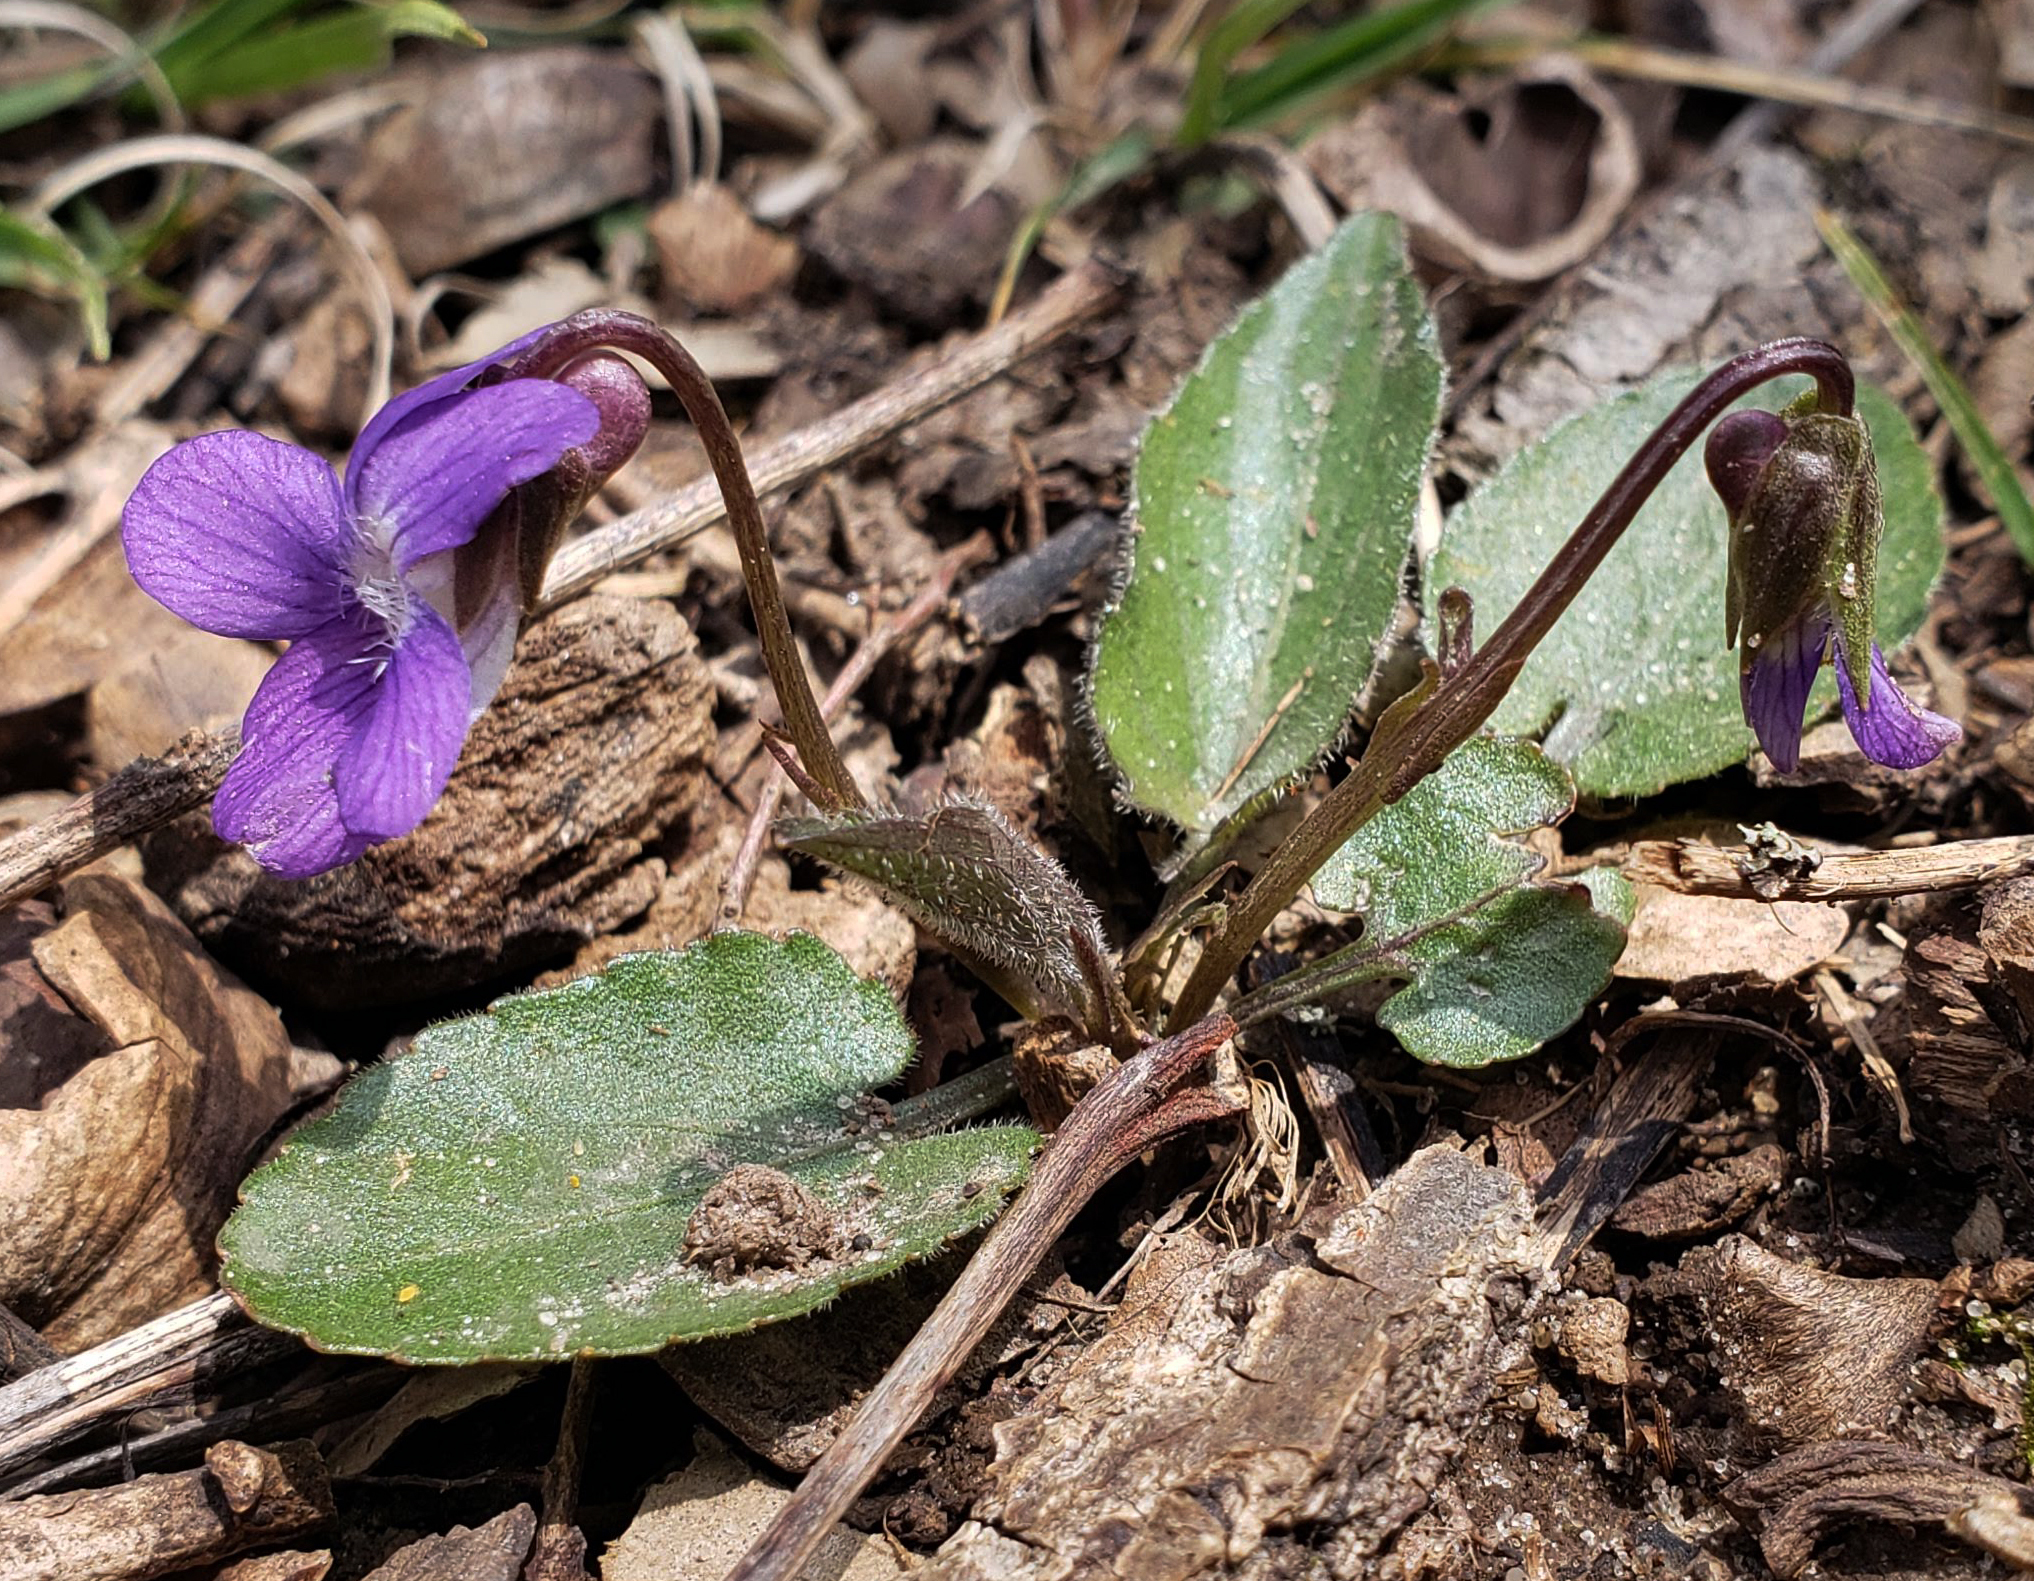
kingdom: Plantae
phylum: Tracheophyta
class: Magnoliopsida
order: Malpighiales
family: Violaceae
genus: Viola
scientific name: Viola sagittata
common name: Arrowhead violet
